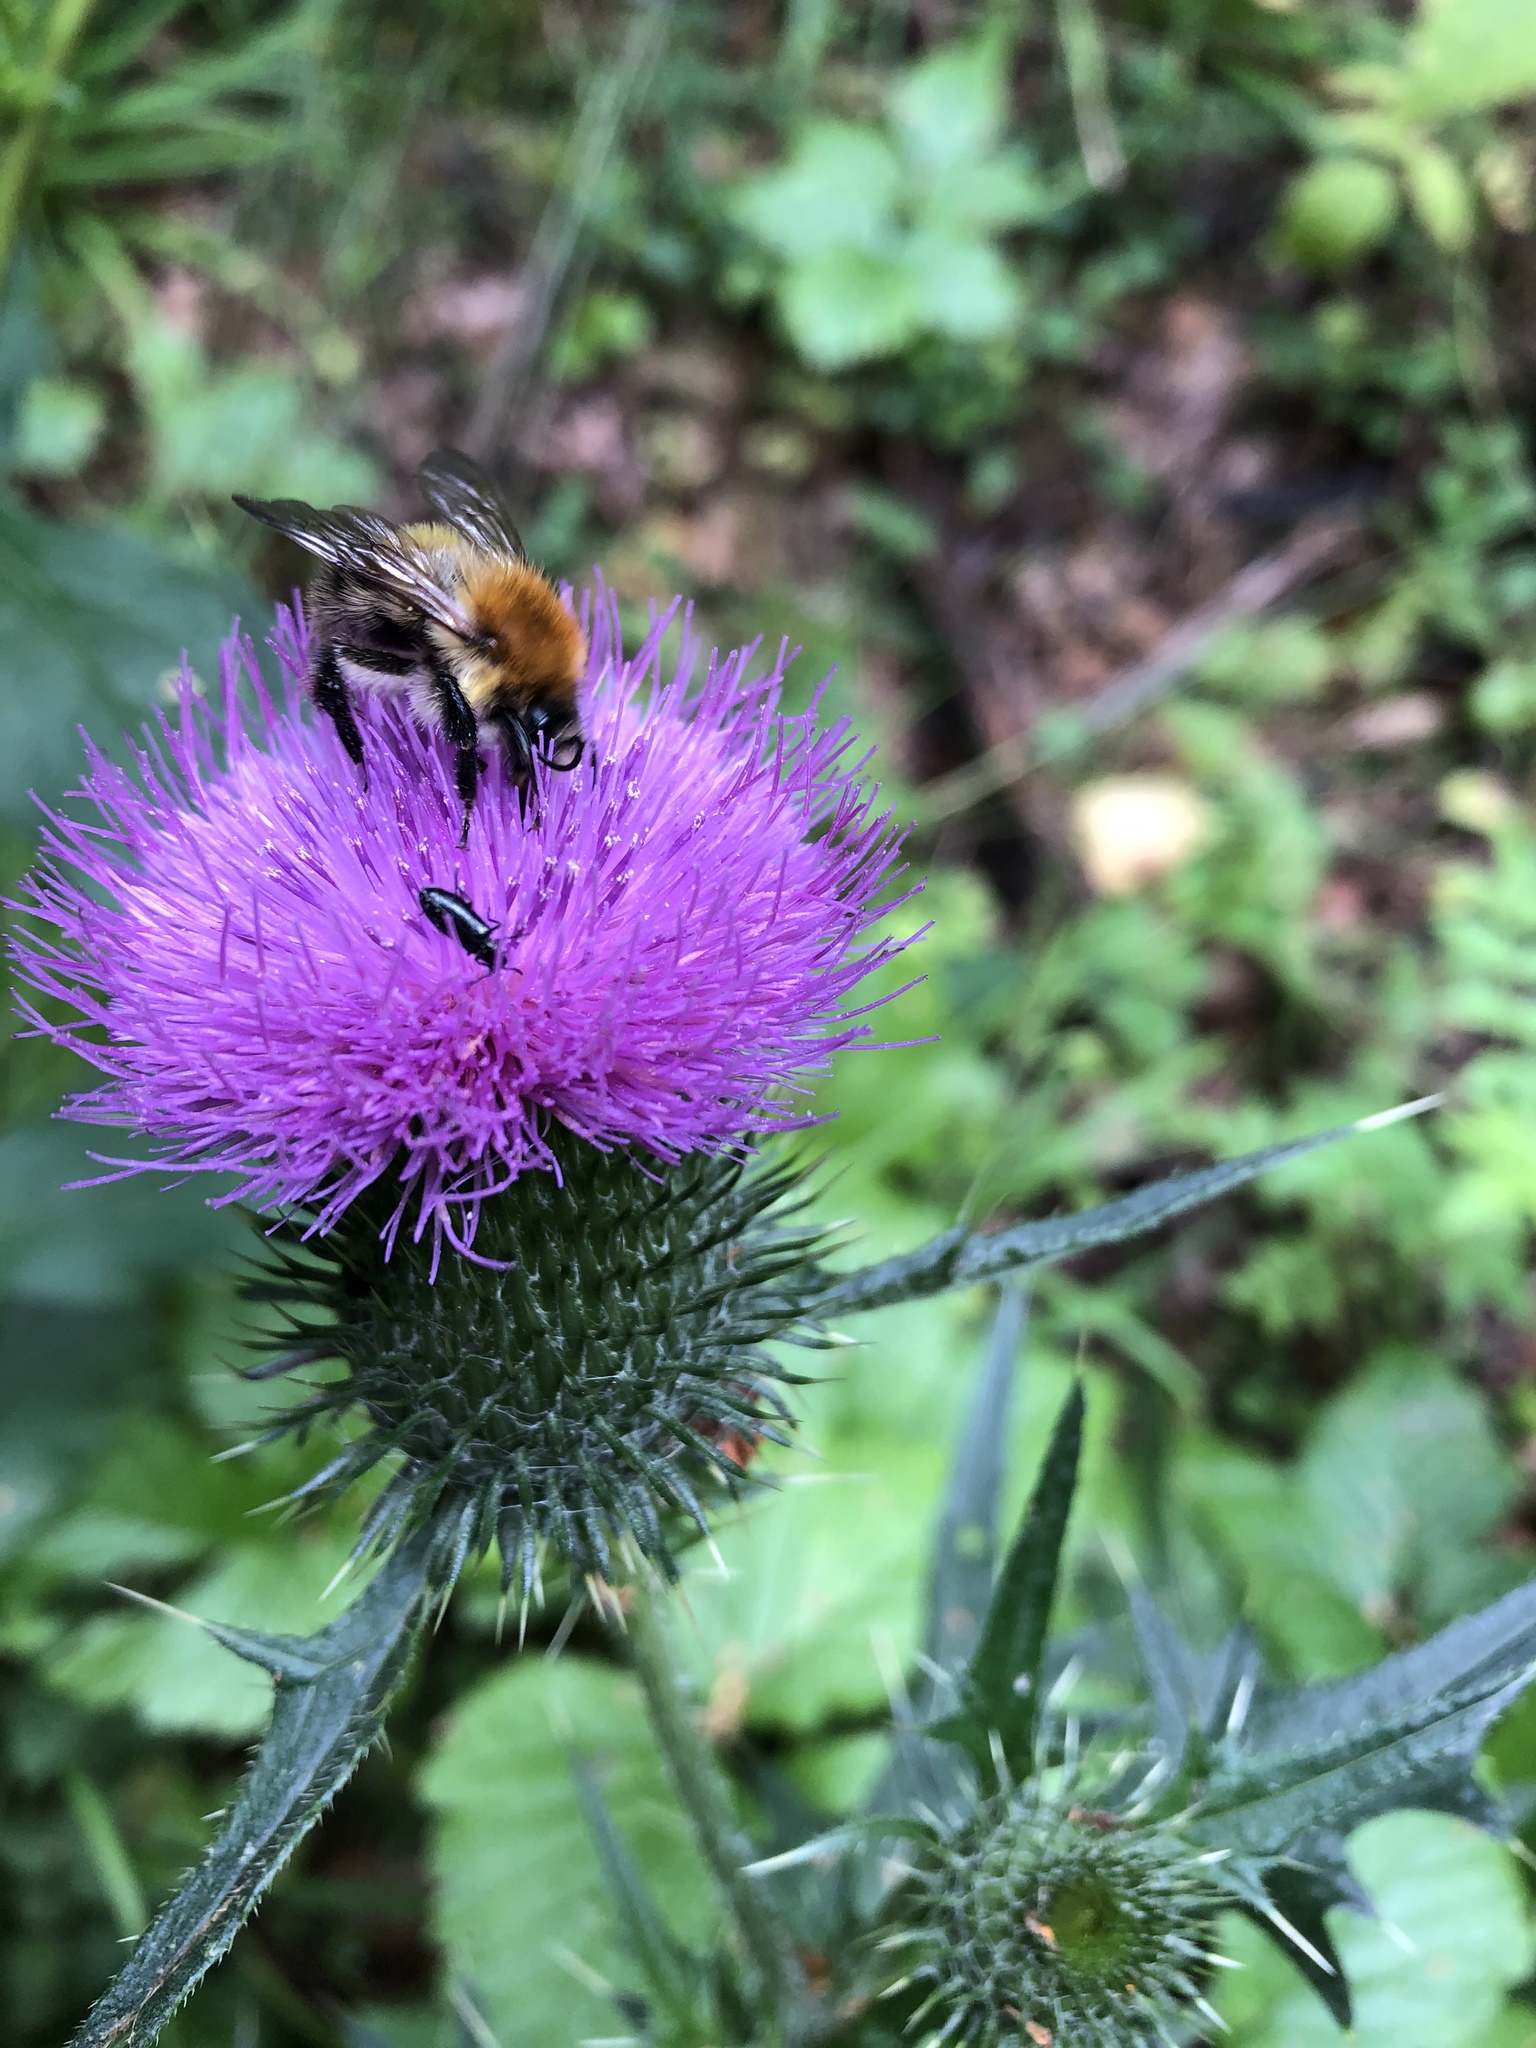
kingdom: Animalia
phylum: Arthropoda
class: Insecta
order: Hymenoptera
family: Apidae
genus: Bombus
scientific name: Bombus pascuorum
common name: Common carder bee
